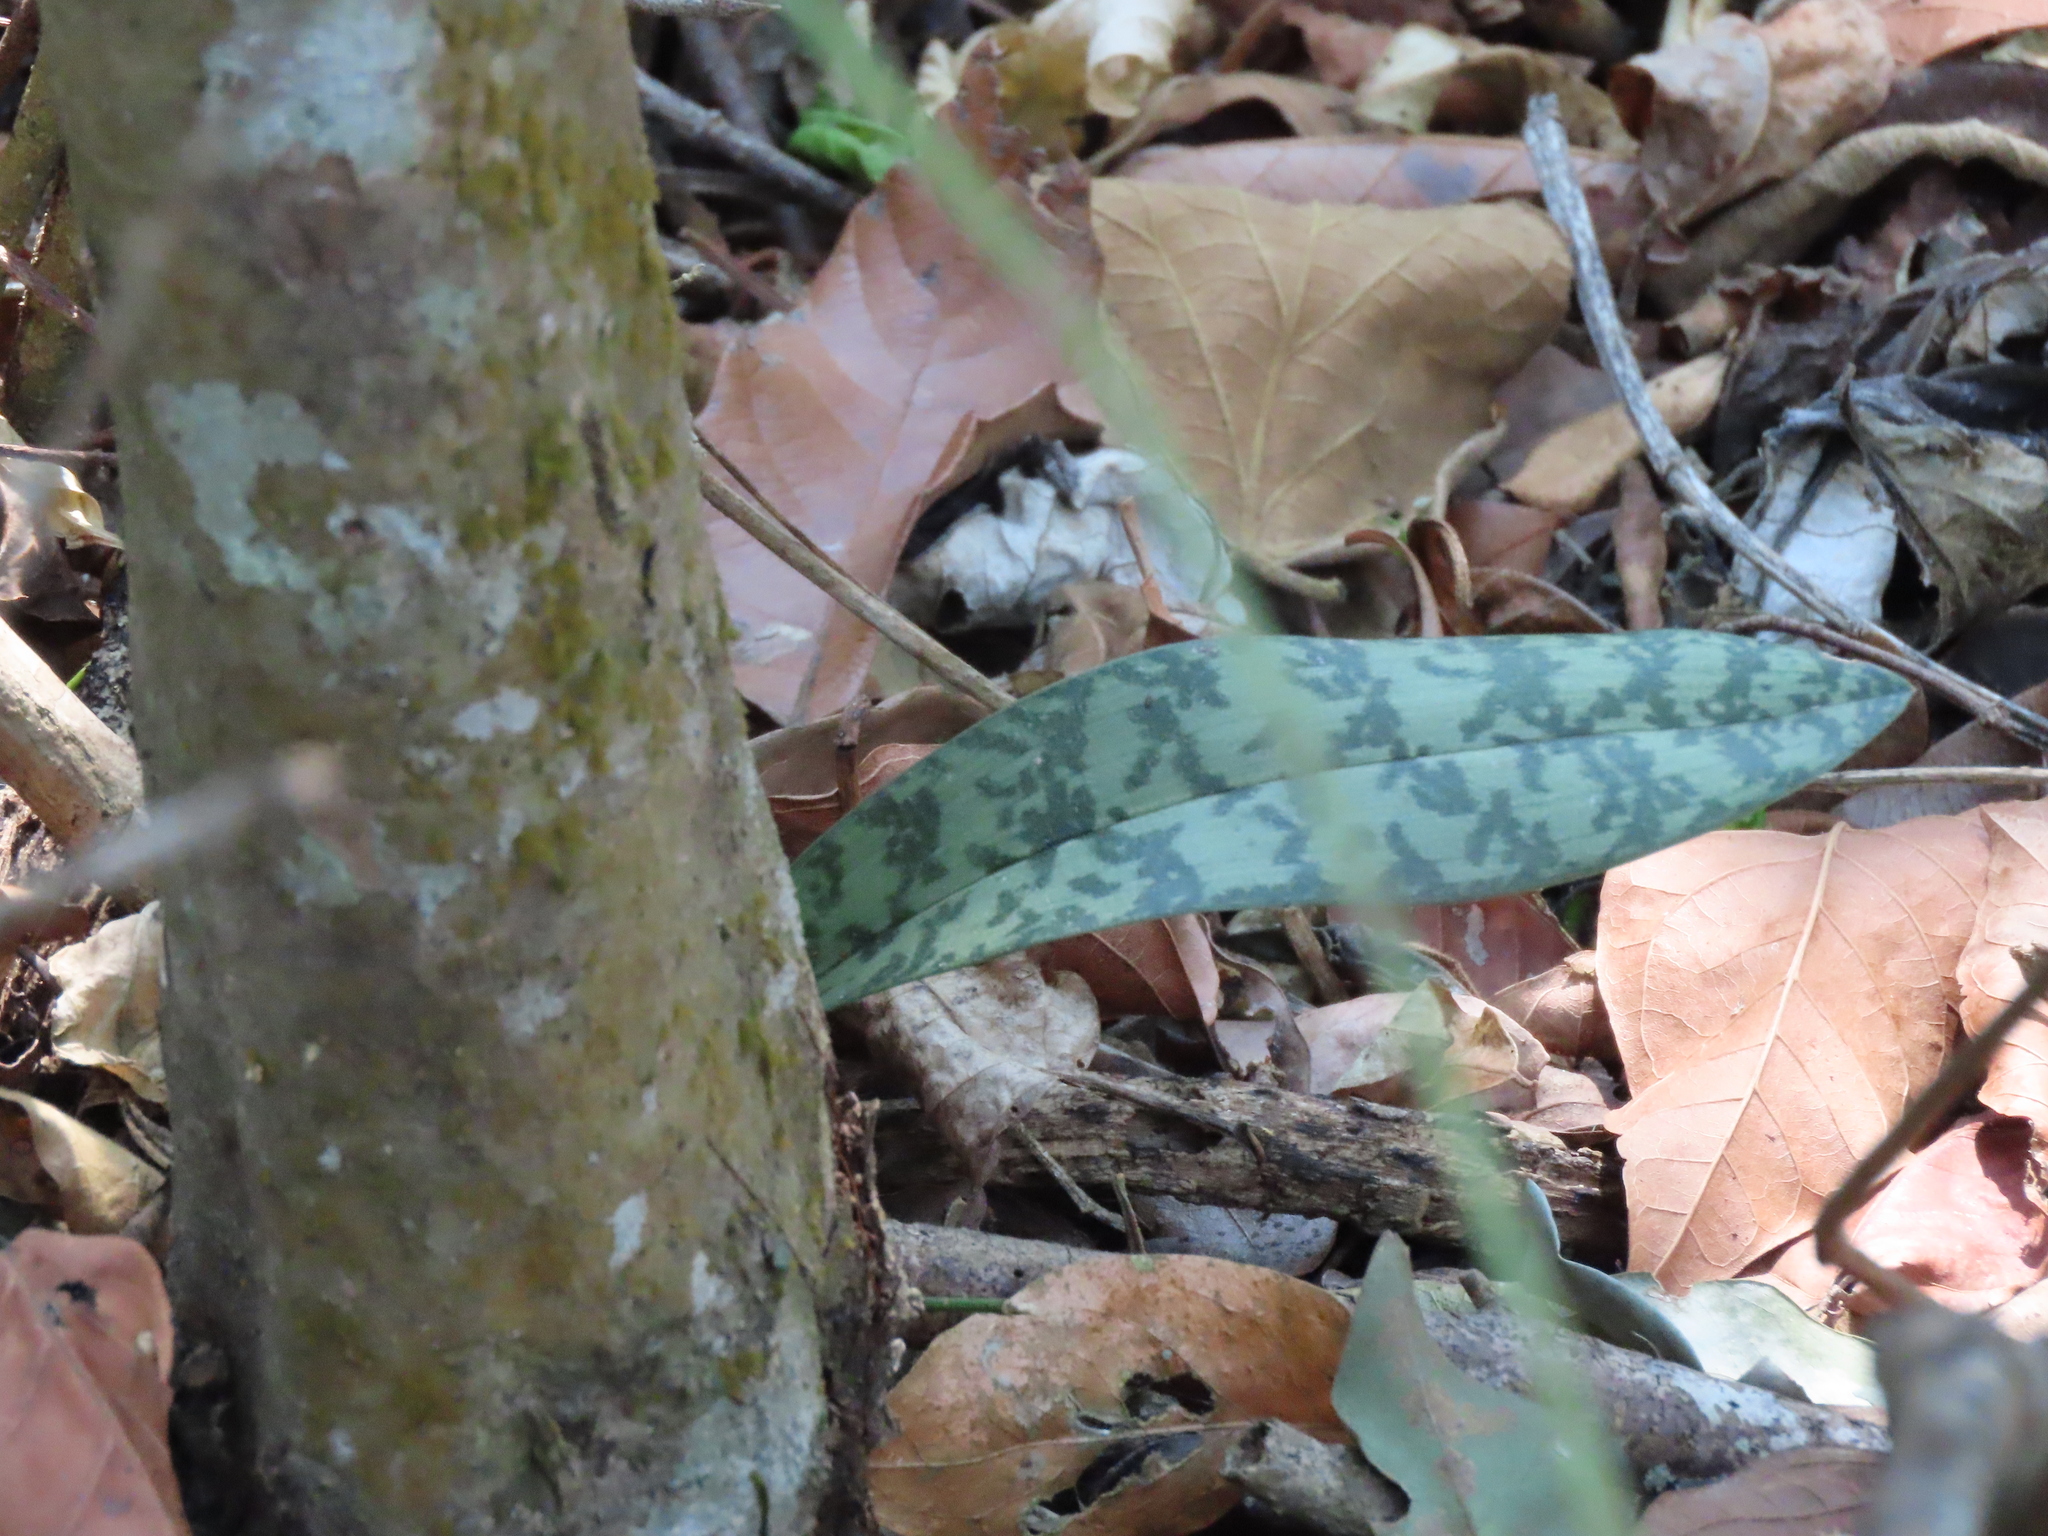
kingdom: Plantae
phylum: Tracheophyta
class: Liliopsida
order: Asparagales
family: Orchidaceae
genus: Eulophia
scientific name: Eulophia maculata
